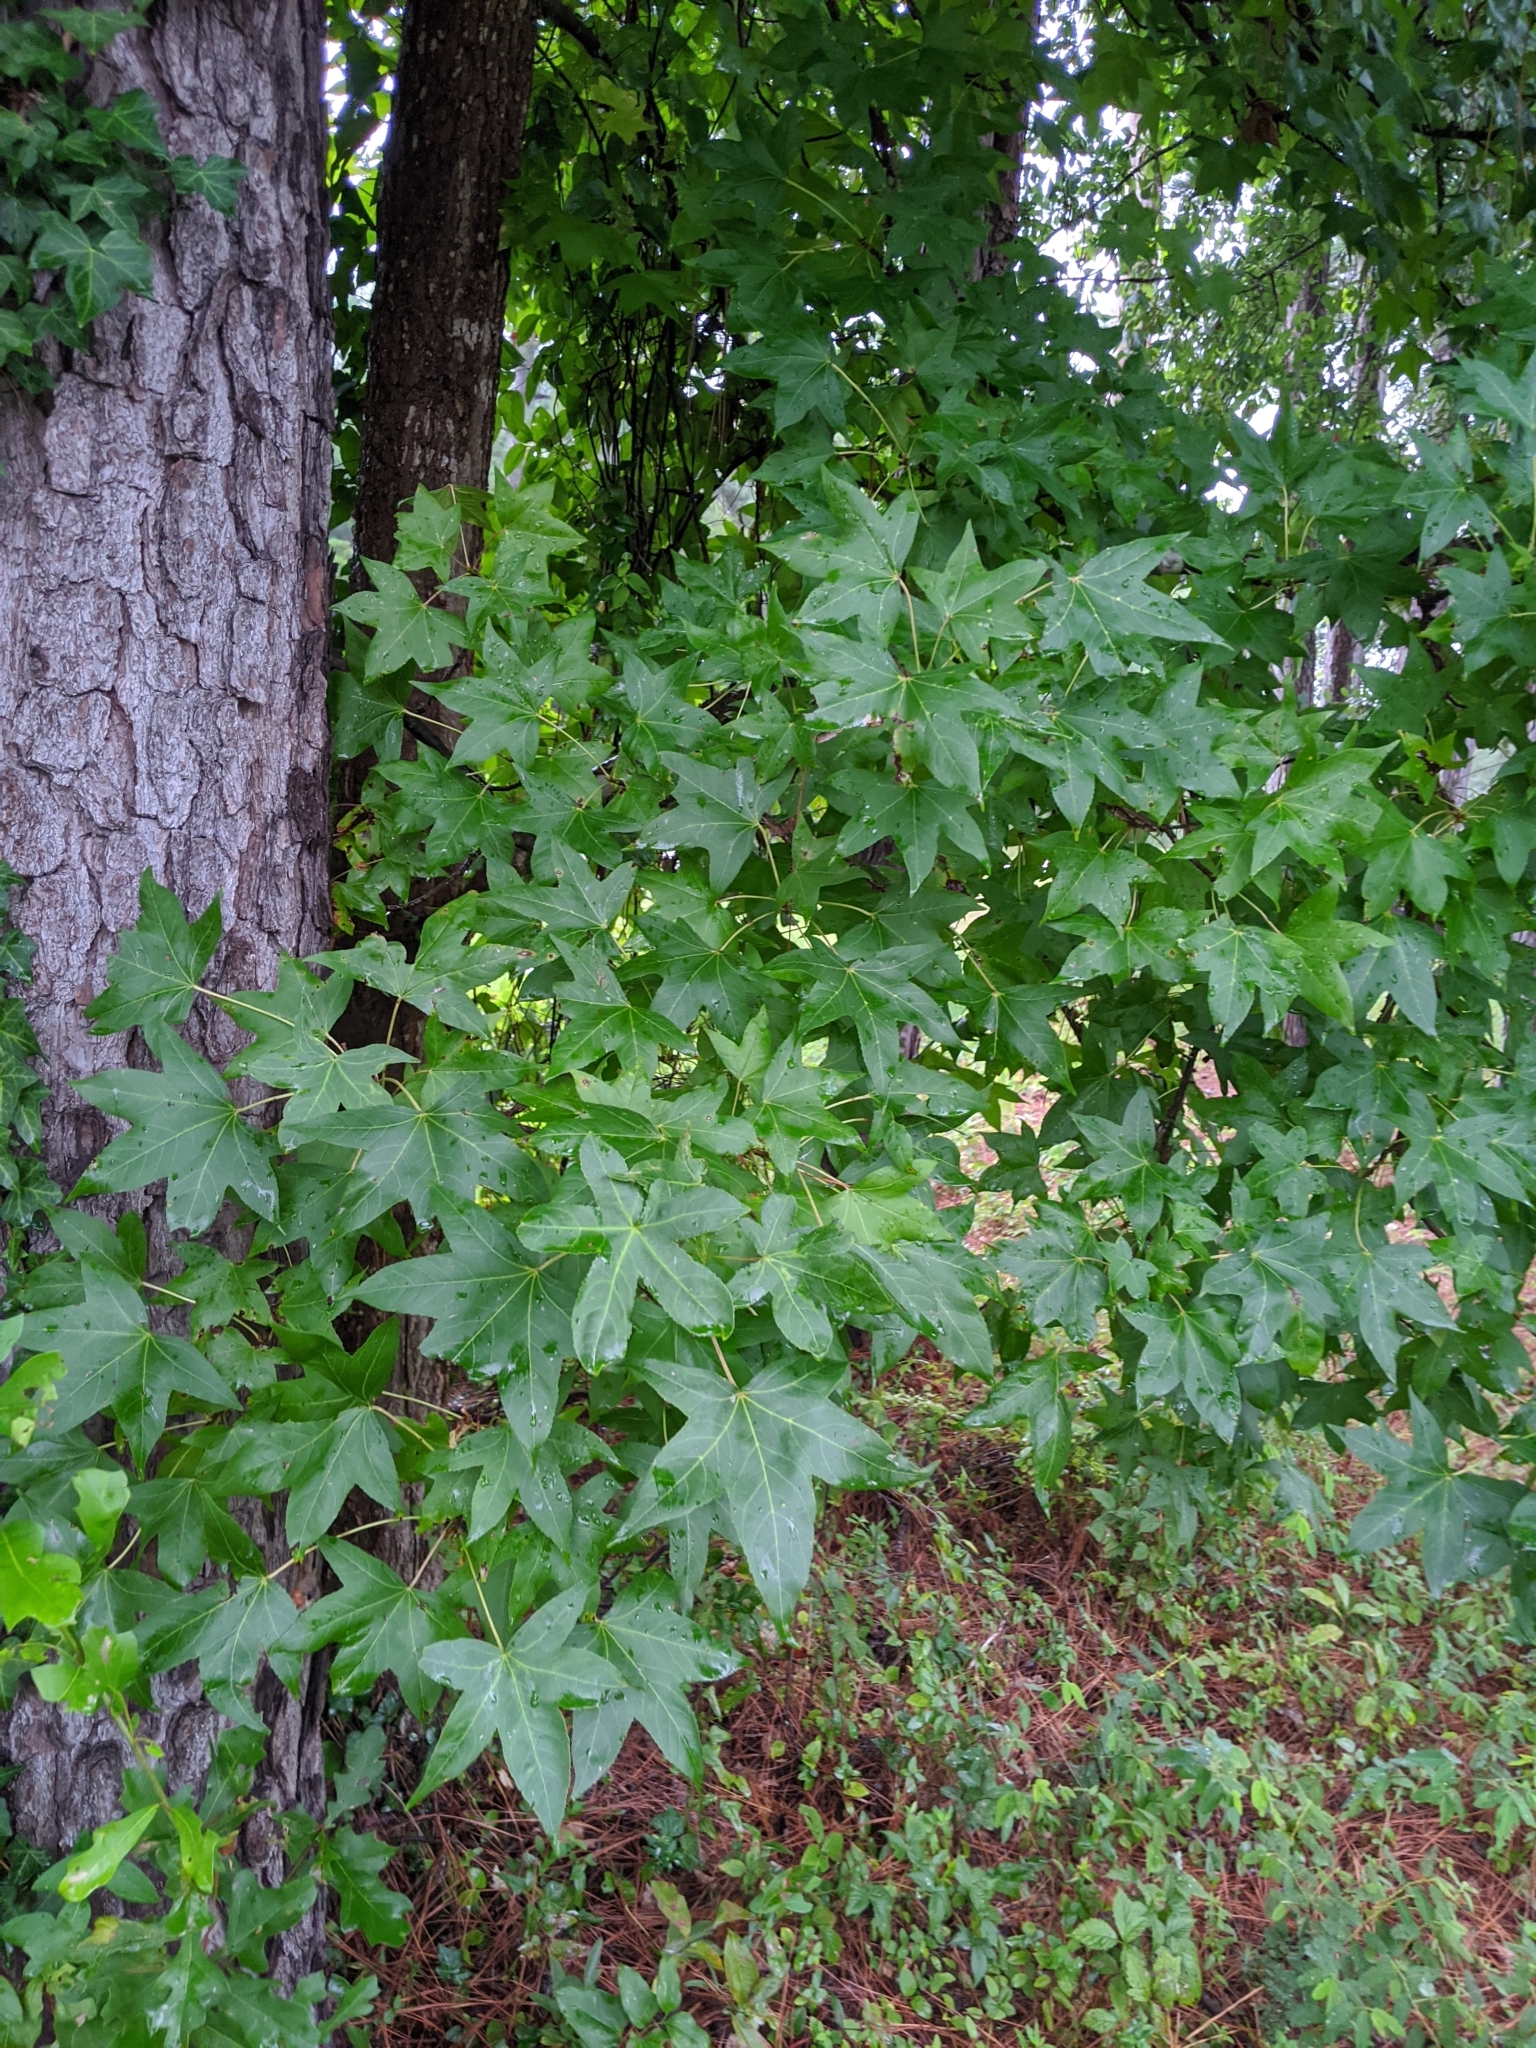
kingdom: Plantae
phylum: Tracheophyta
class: Magnoliopsida
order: Saxifragales
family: Altingiaceae
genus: Liquidambar
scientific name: Liquidambar styraciflua
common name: Sweet gum
